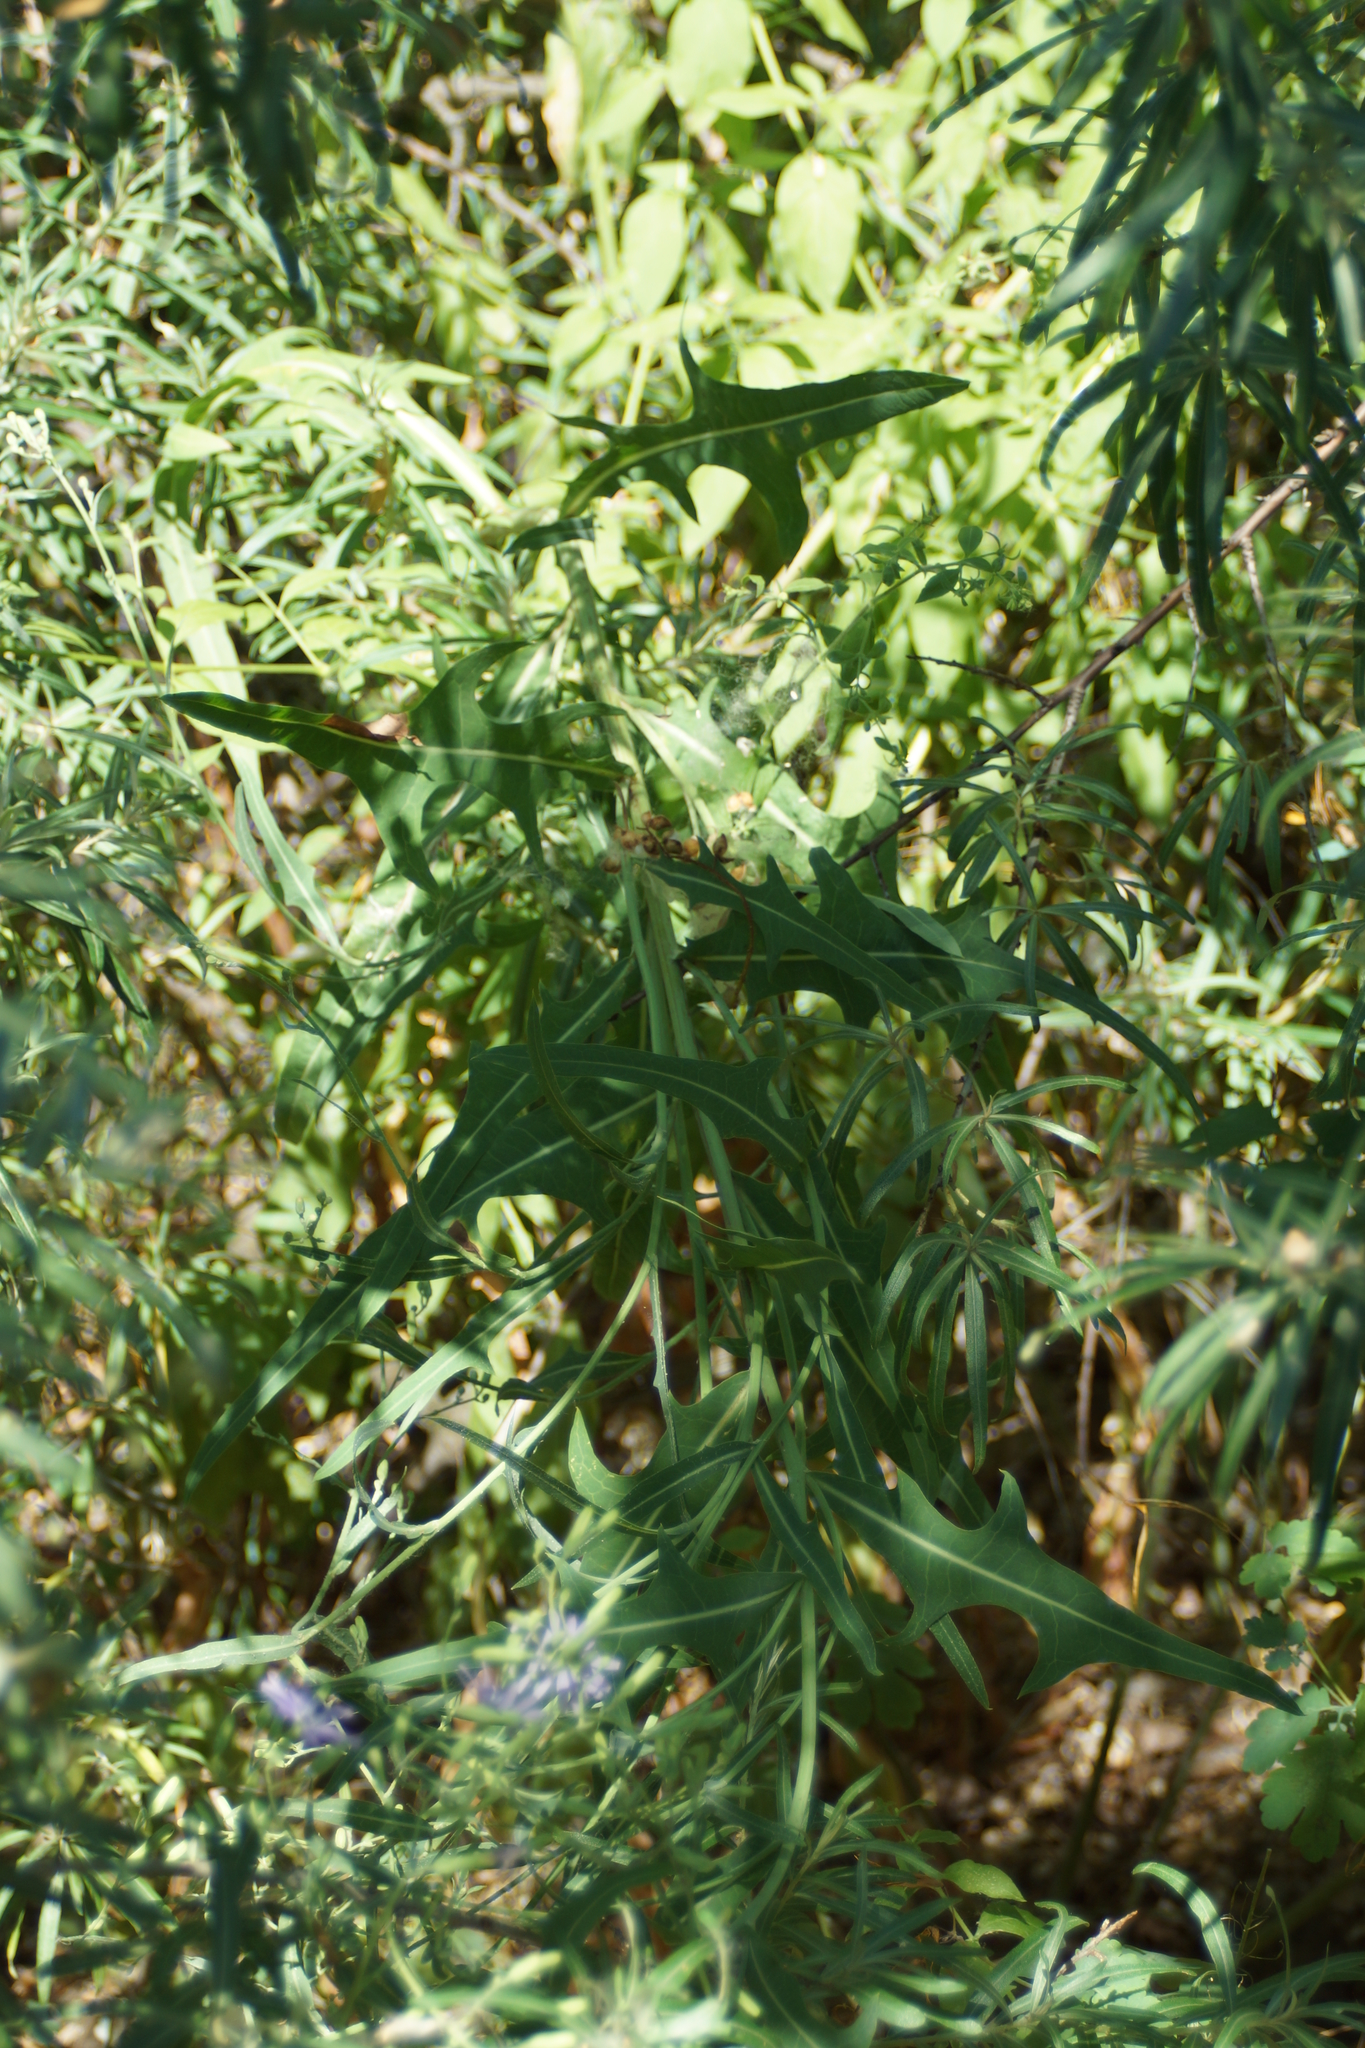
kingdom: Plantae
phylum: Tracheophyta
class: Magnoliopsida
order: Asterales
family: Asteraceae
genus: Lactuca
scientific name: Lactuca tatarica
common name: Blue lettuce
